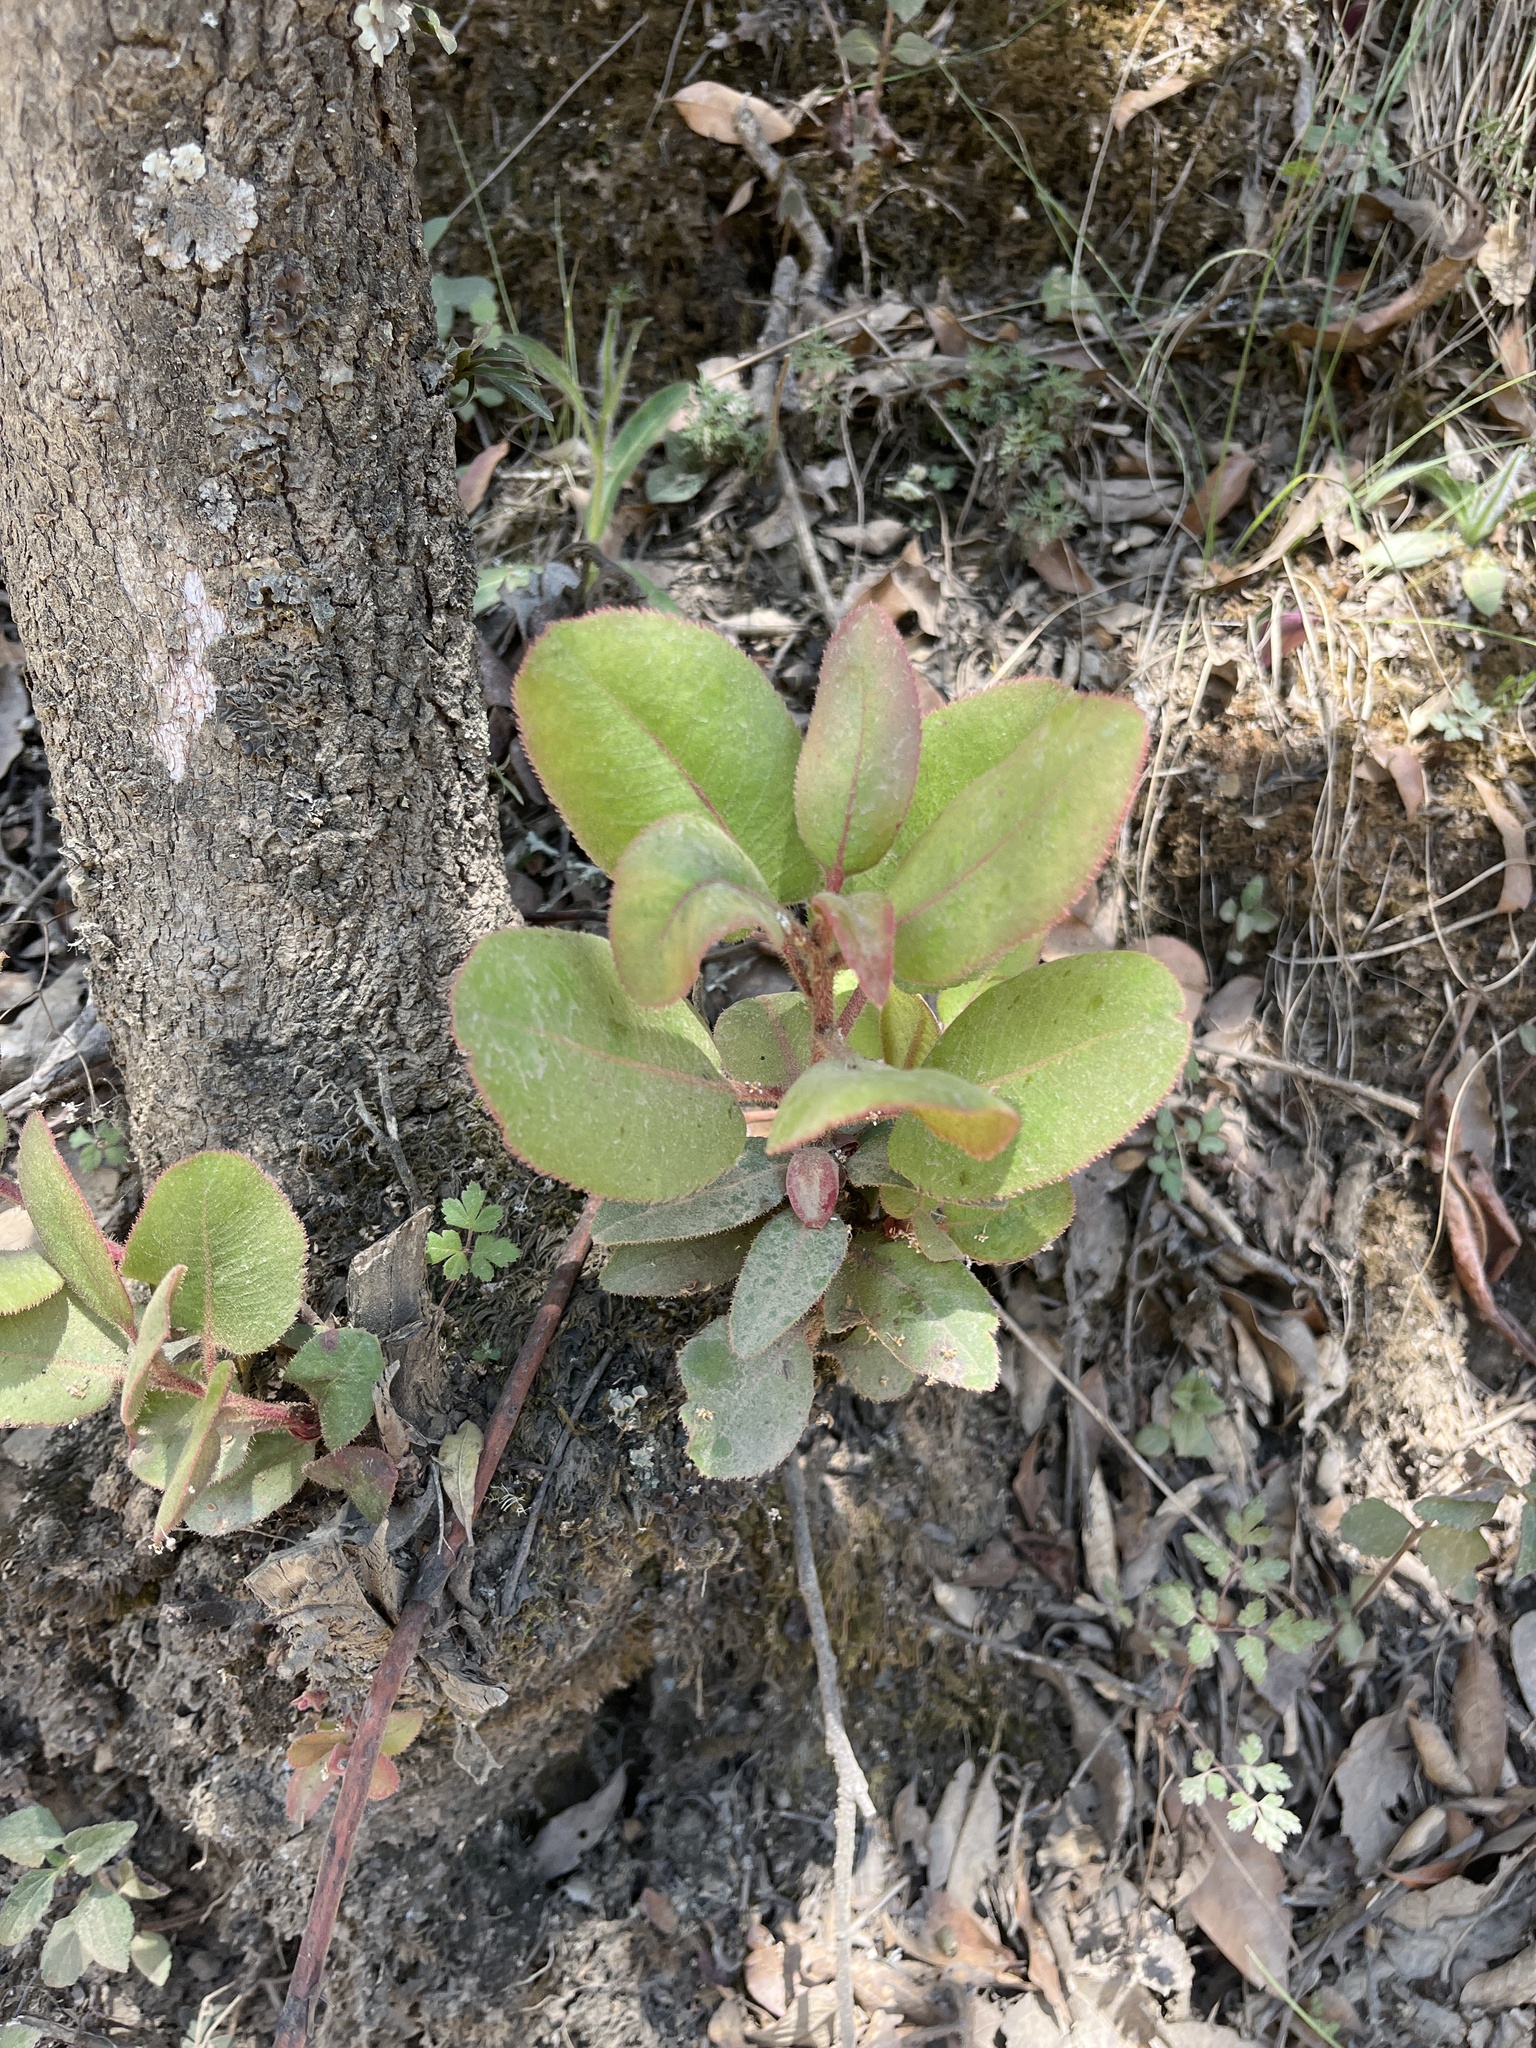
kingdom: Plantae
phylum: Tracheophyta
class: Magnoliopsida
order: Ericales
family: Ericaceae
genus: Arbutus
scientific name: Arbutus xalapensis
